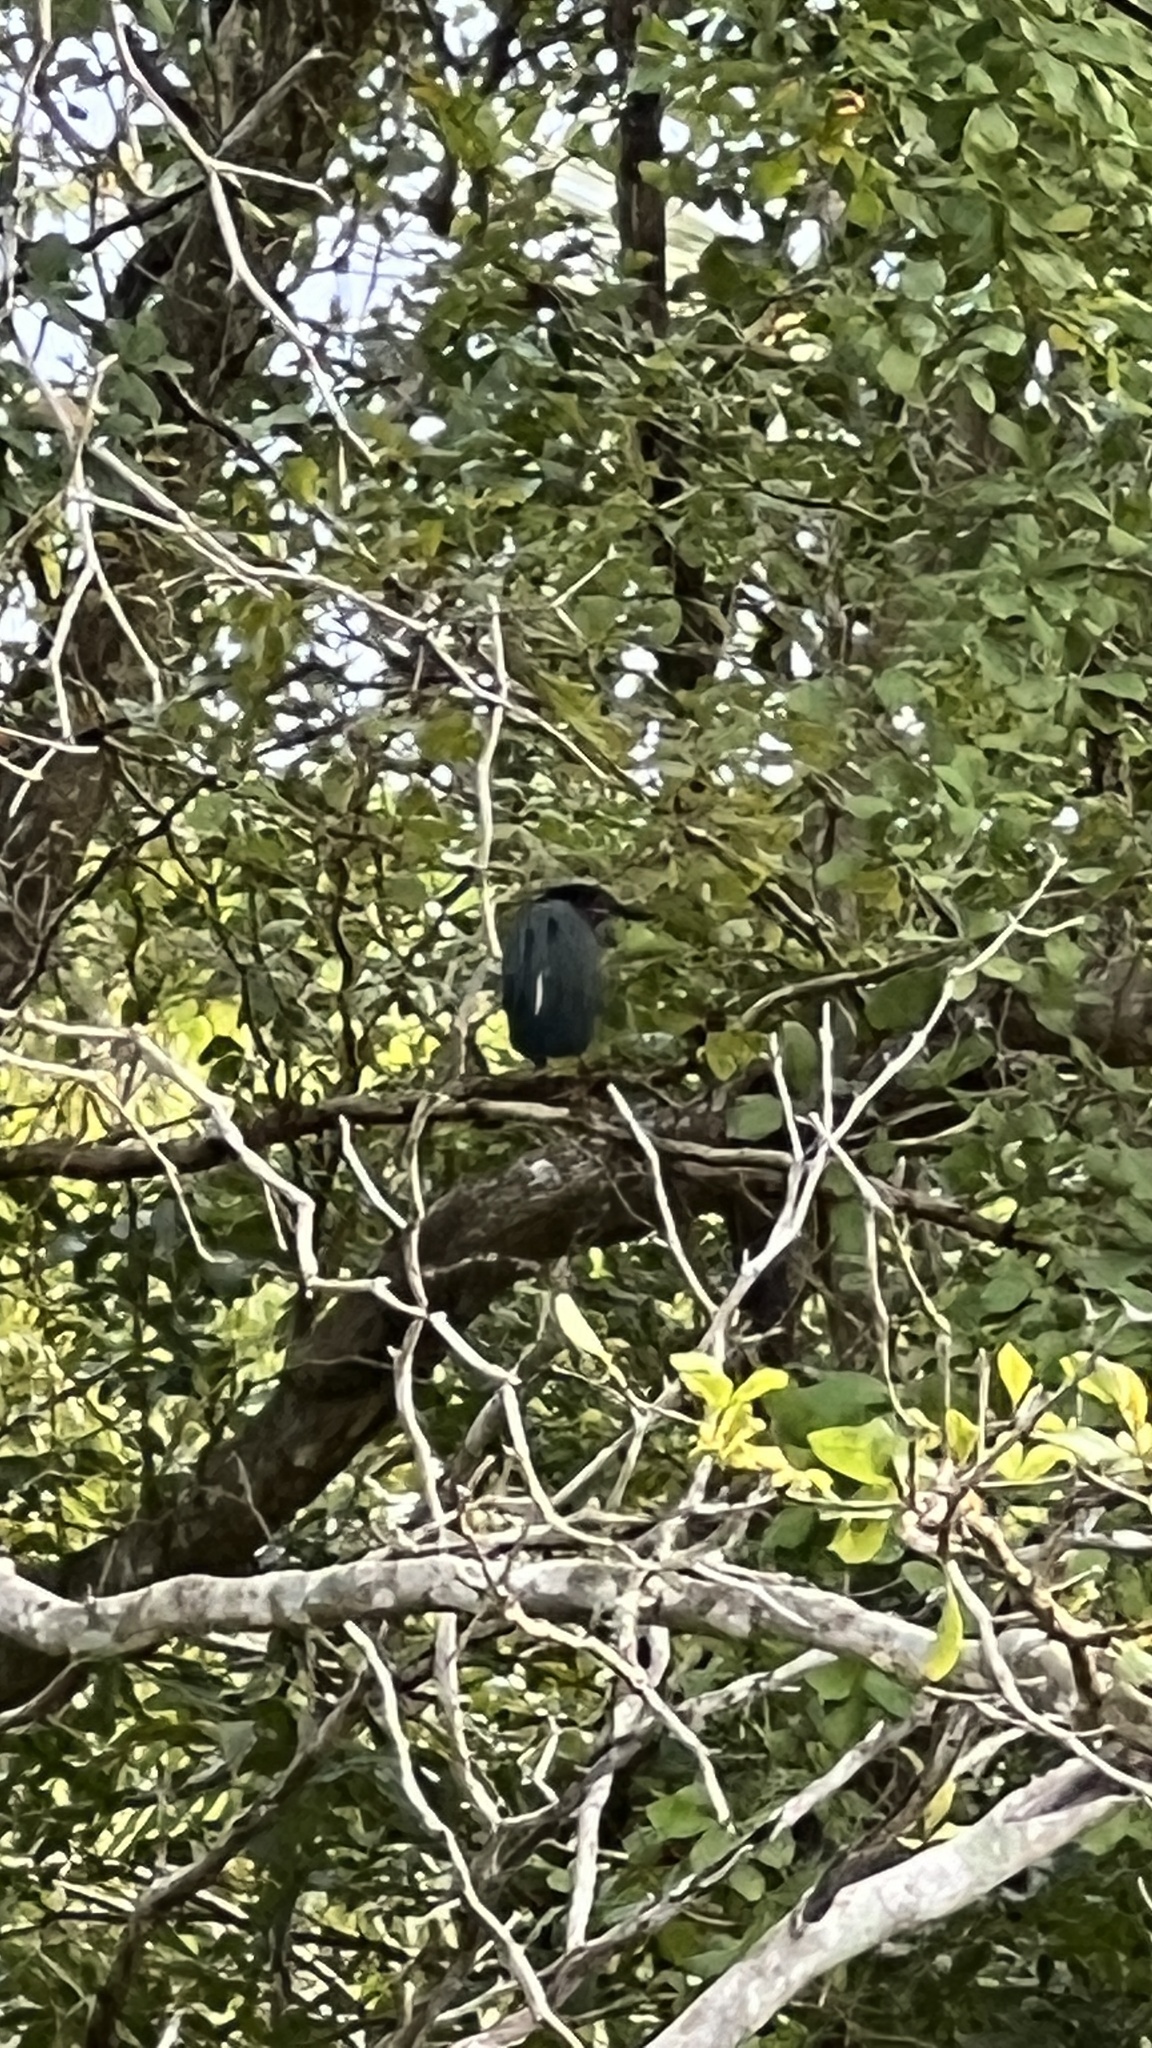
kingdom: Animalia
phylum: Chordata
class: Aves
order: Pelecaniformes
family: Ardeidae
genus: Butorides
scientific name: Butorides virescens
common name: Green heron
